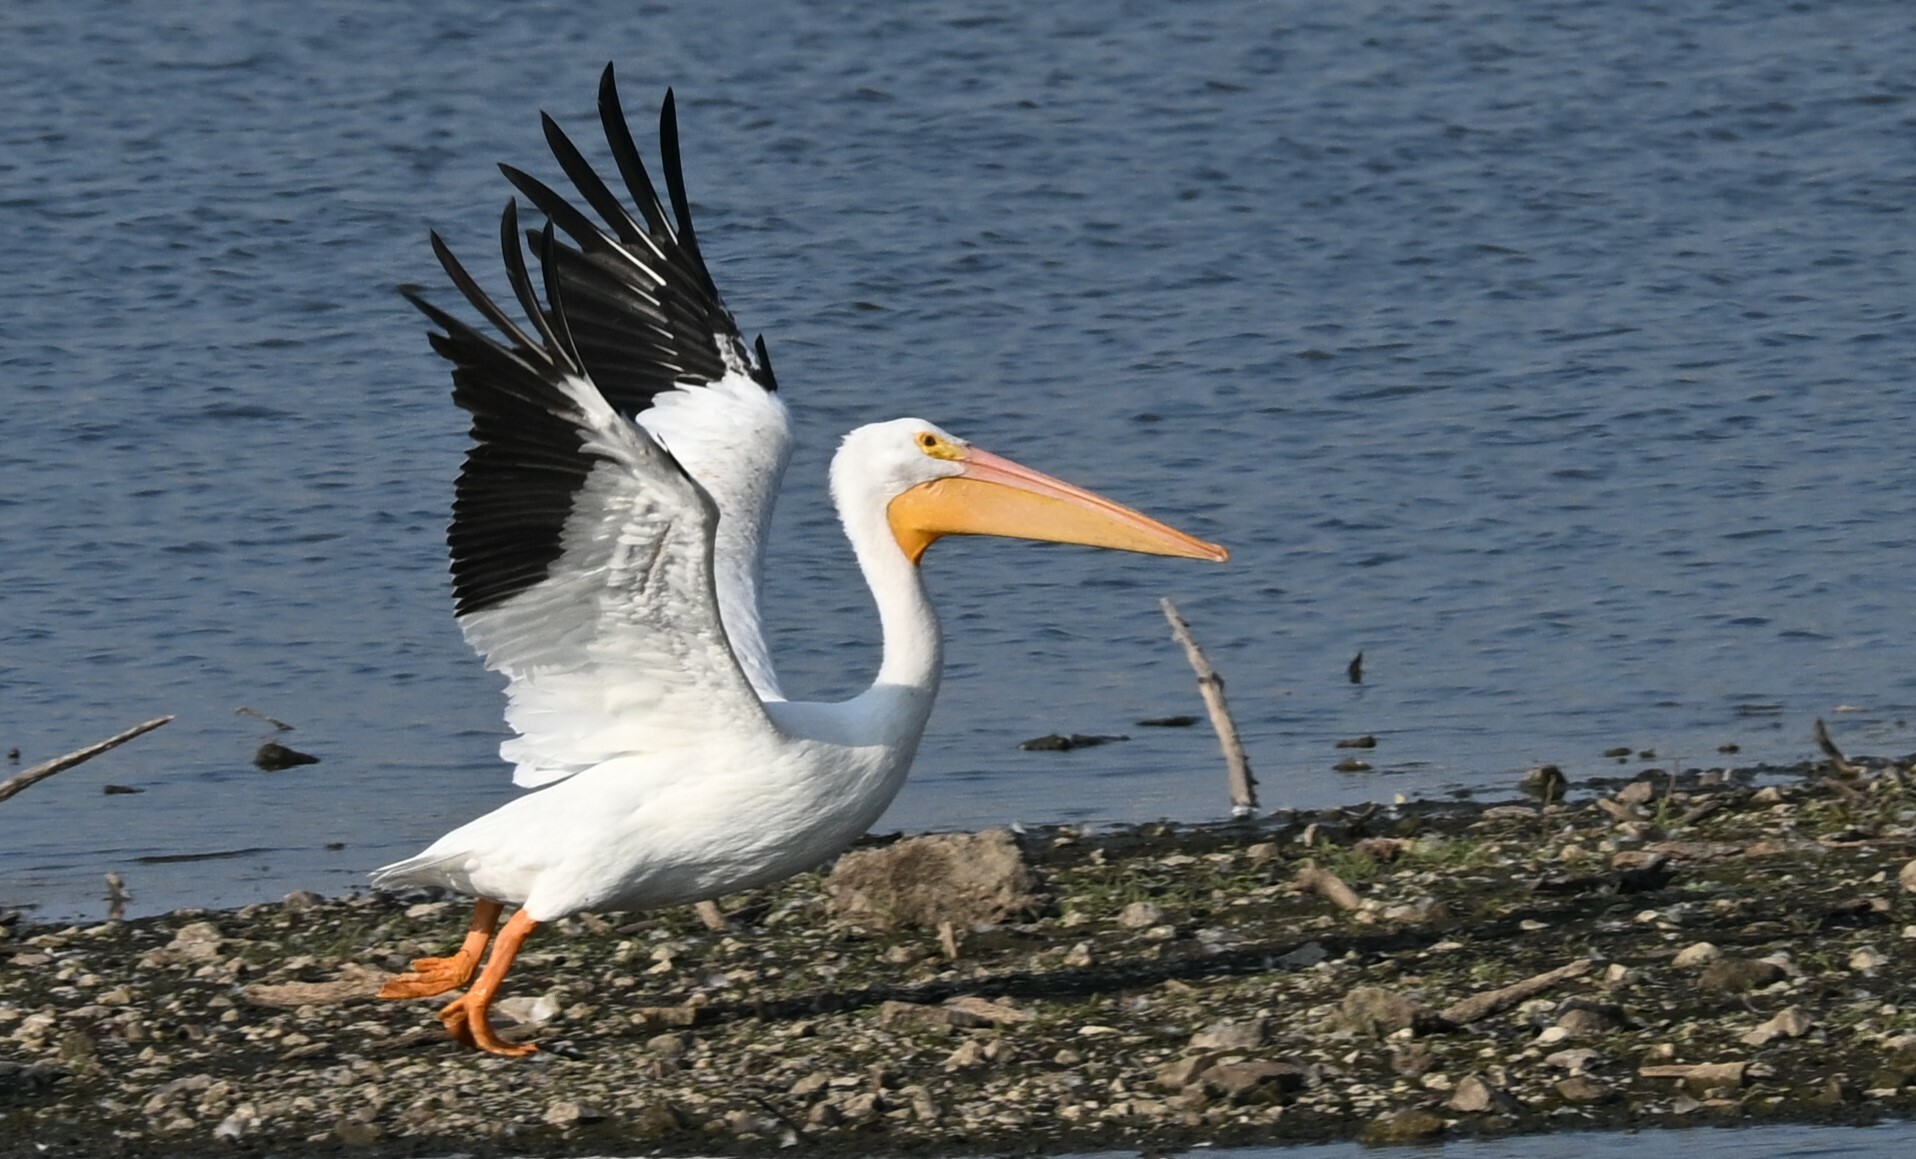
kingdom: Animalia
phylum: Chordata
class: Aves
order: Pelecaniformes
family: Pelecanidae
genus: Pelecanus
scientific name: Pelecanus erythrorhynchos
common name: American white pelican
